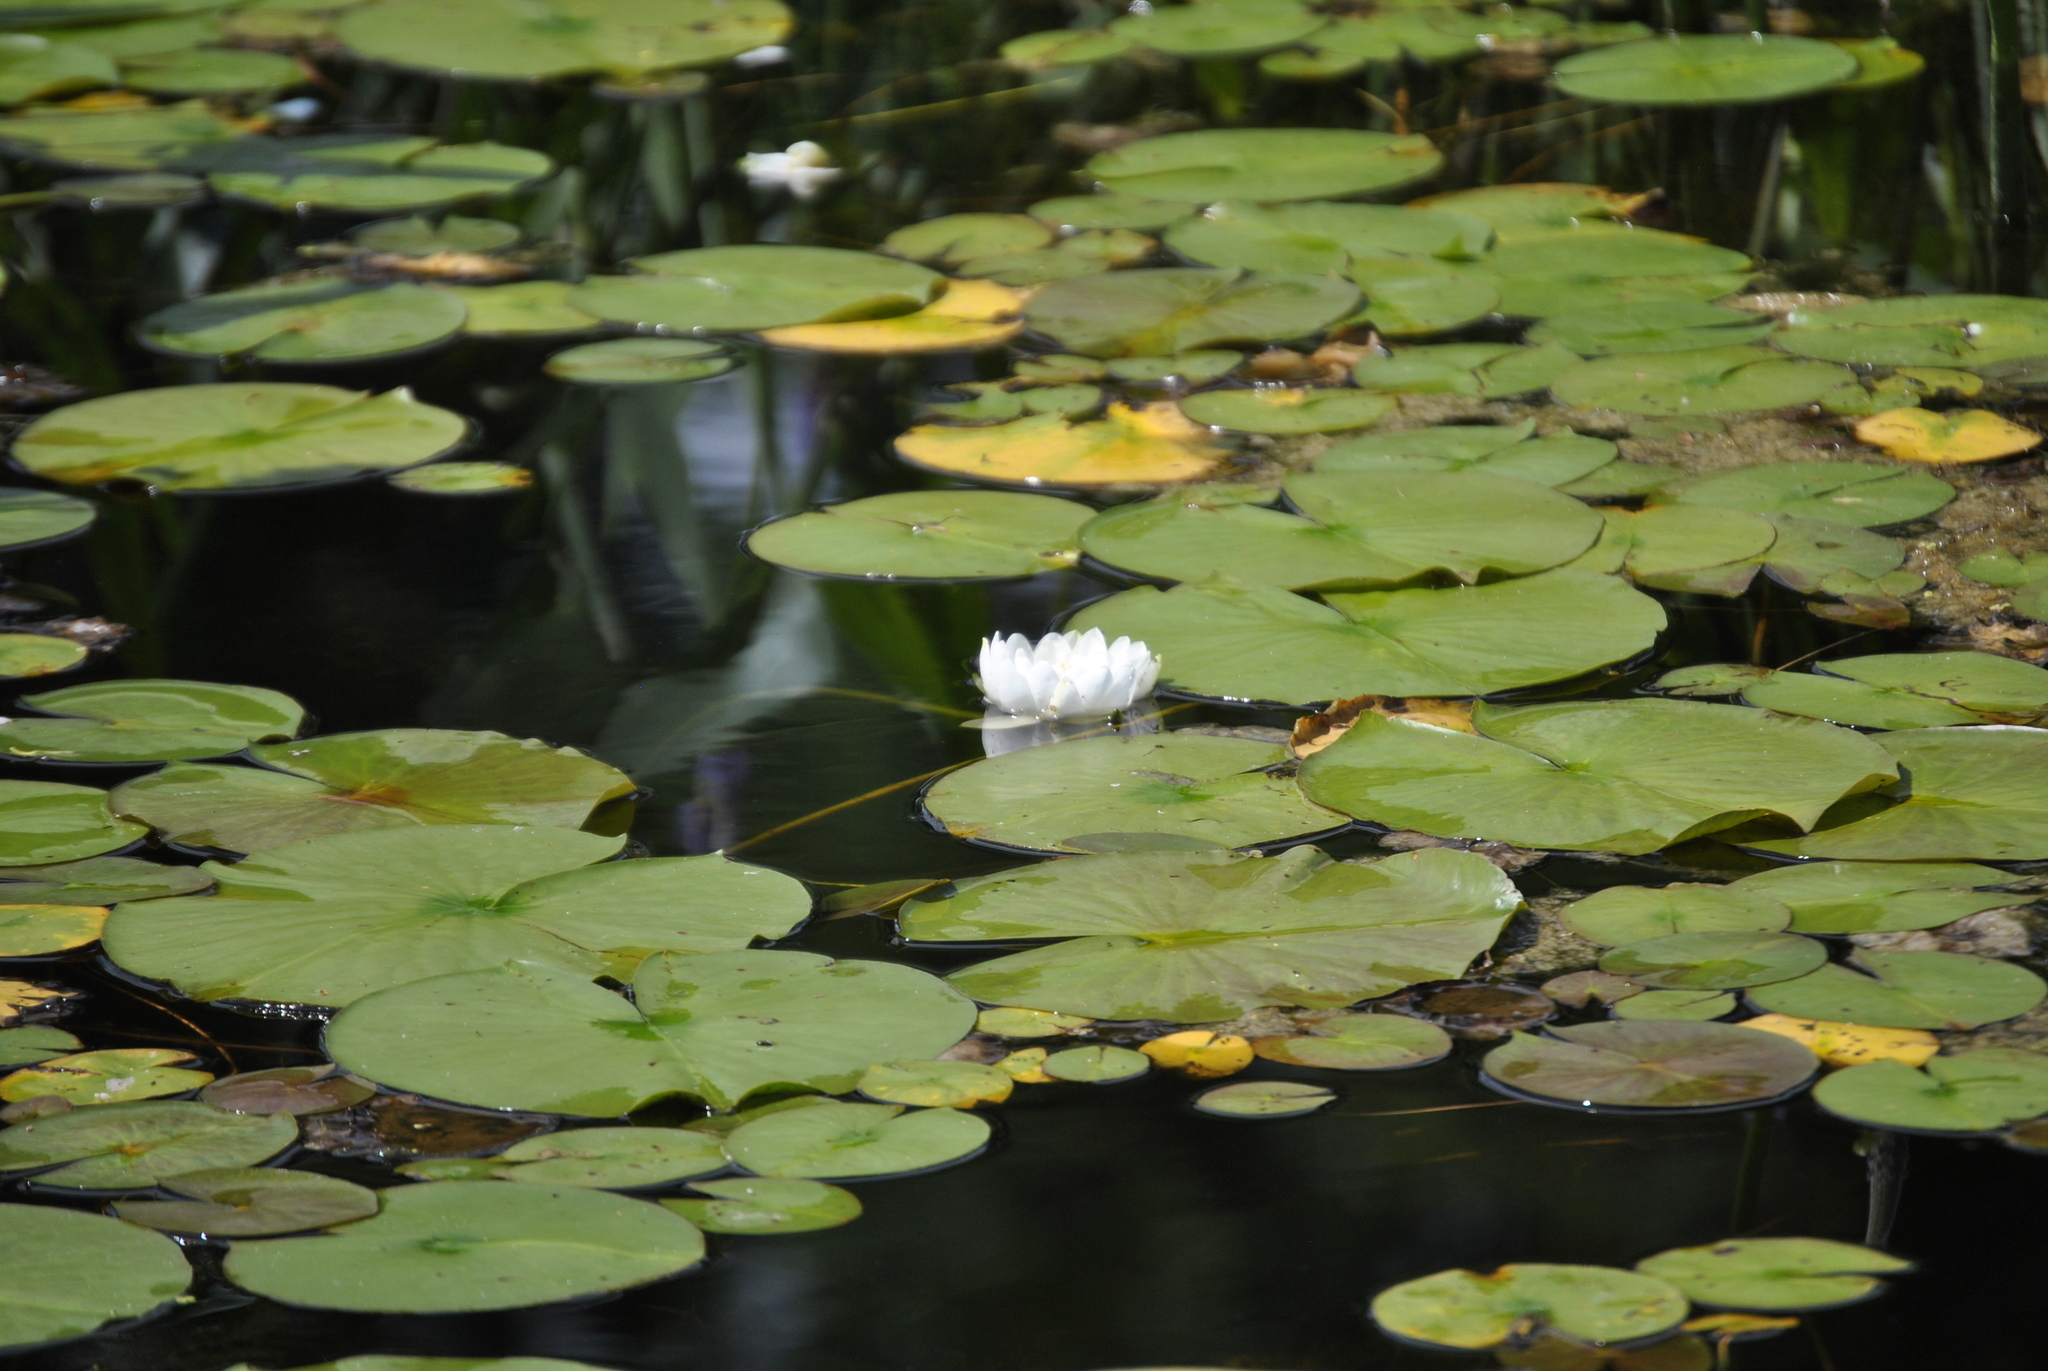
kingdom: Plantae
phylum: Tracheophyta
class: Magnoliopsida
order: Nymphaeales
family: Nymphaeaceae
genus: Nymphaea
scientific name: Nymphaea odorata
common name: Fragrant water-lily
